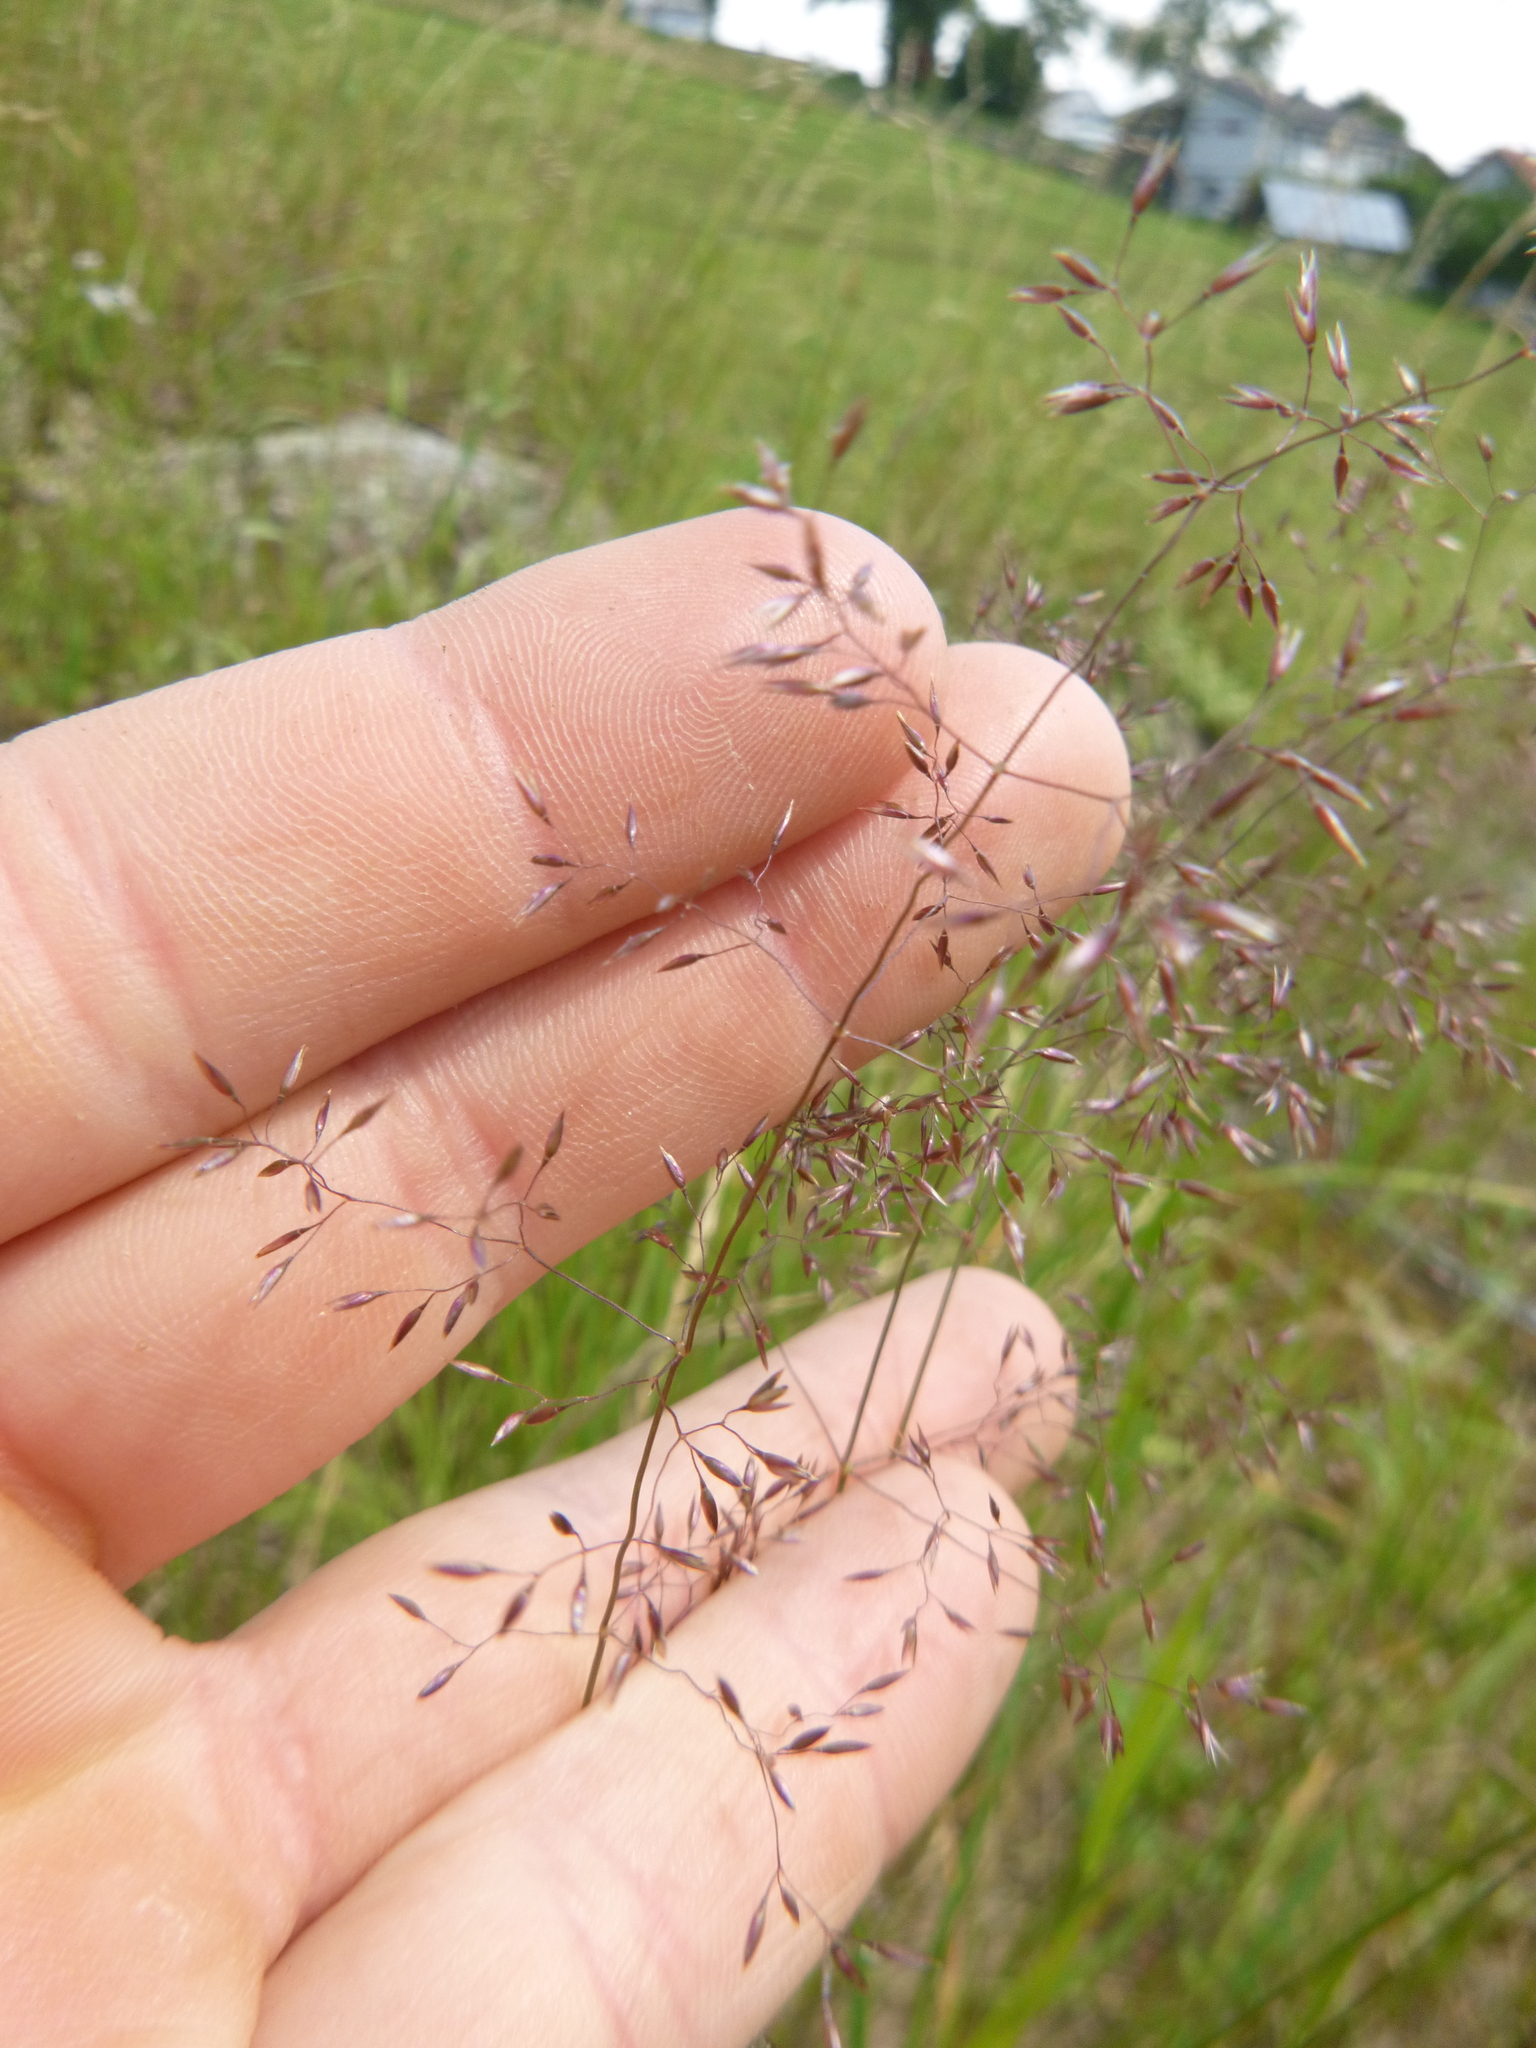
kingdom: Plantae
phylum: Tracheophyta
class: Liliopsida
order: Poales
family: Poaceae
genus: Agrostis
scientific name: Agrostis capillaris
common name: Colonial bentgrass
